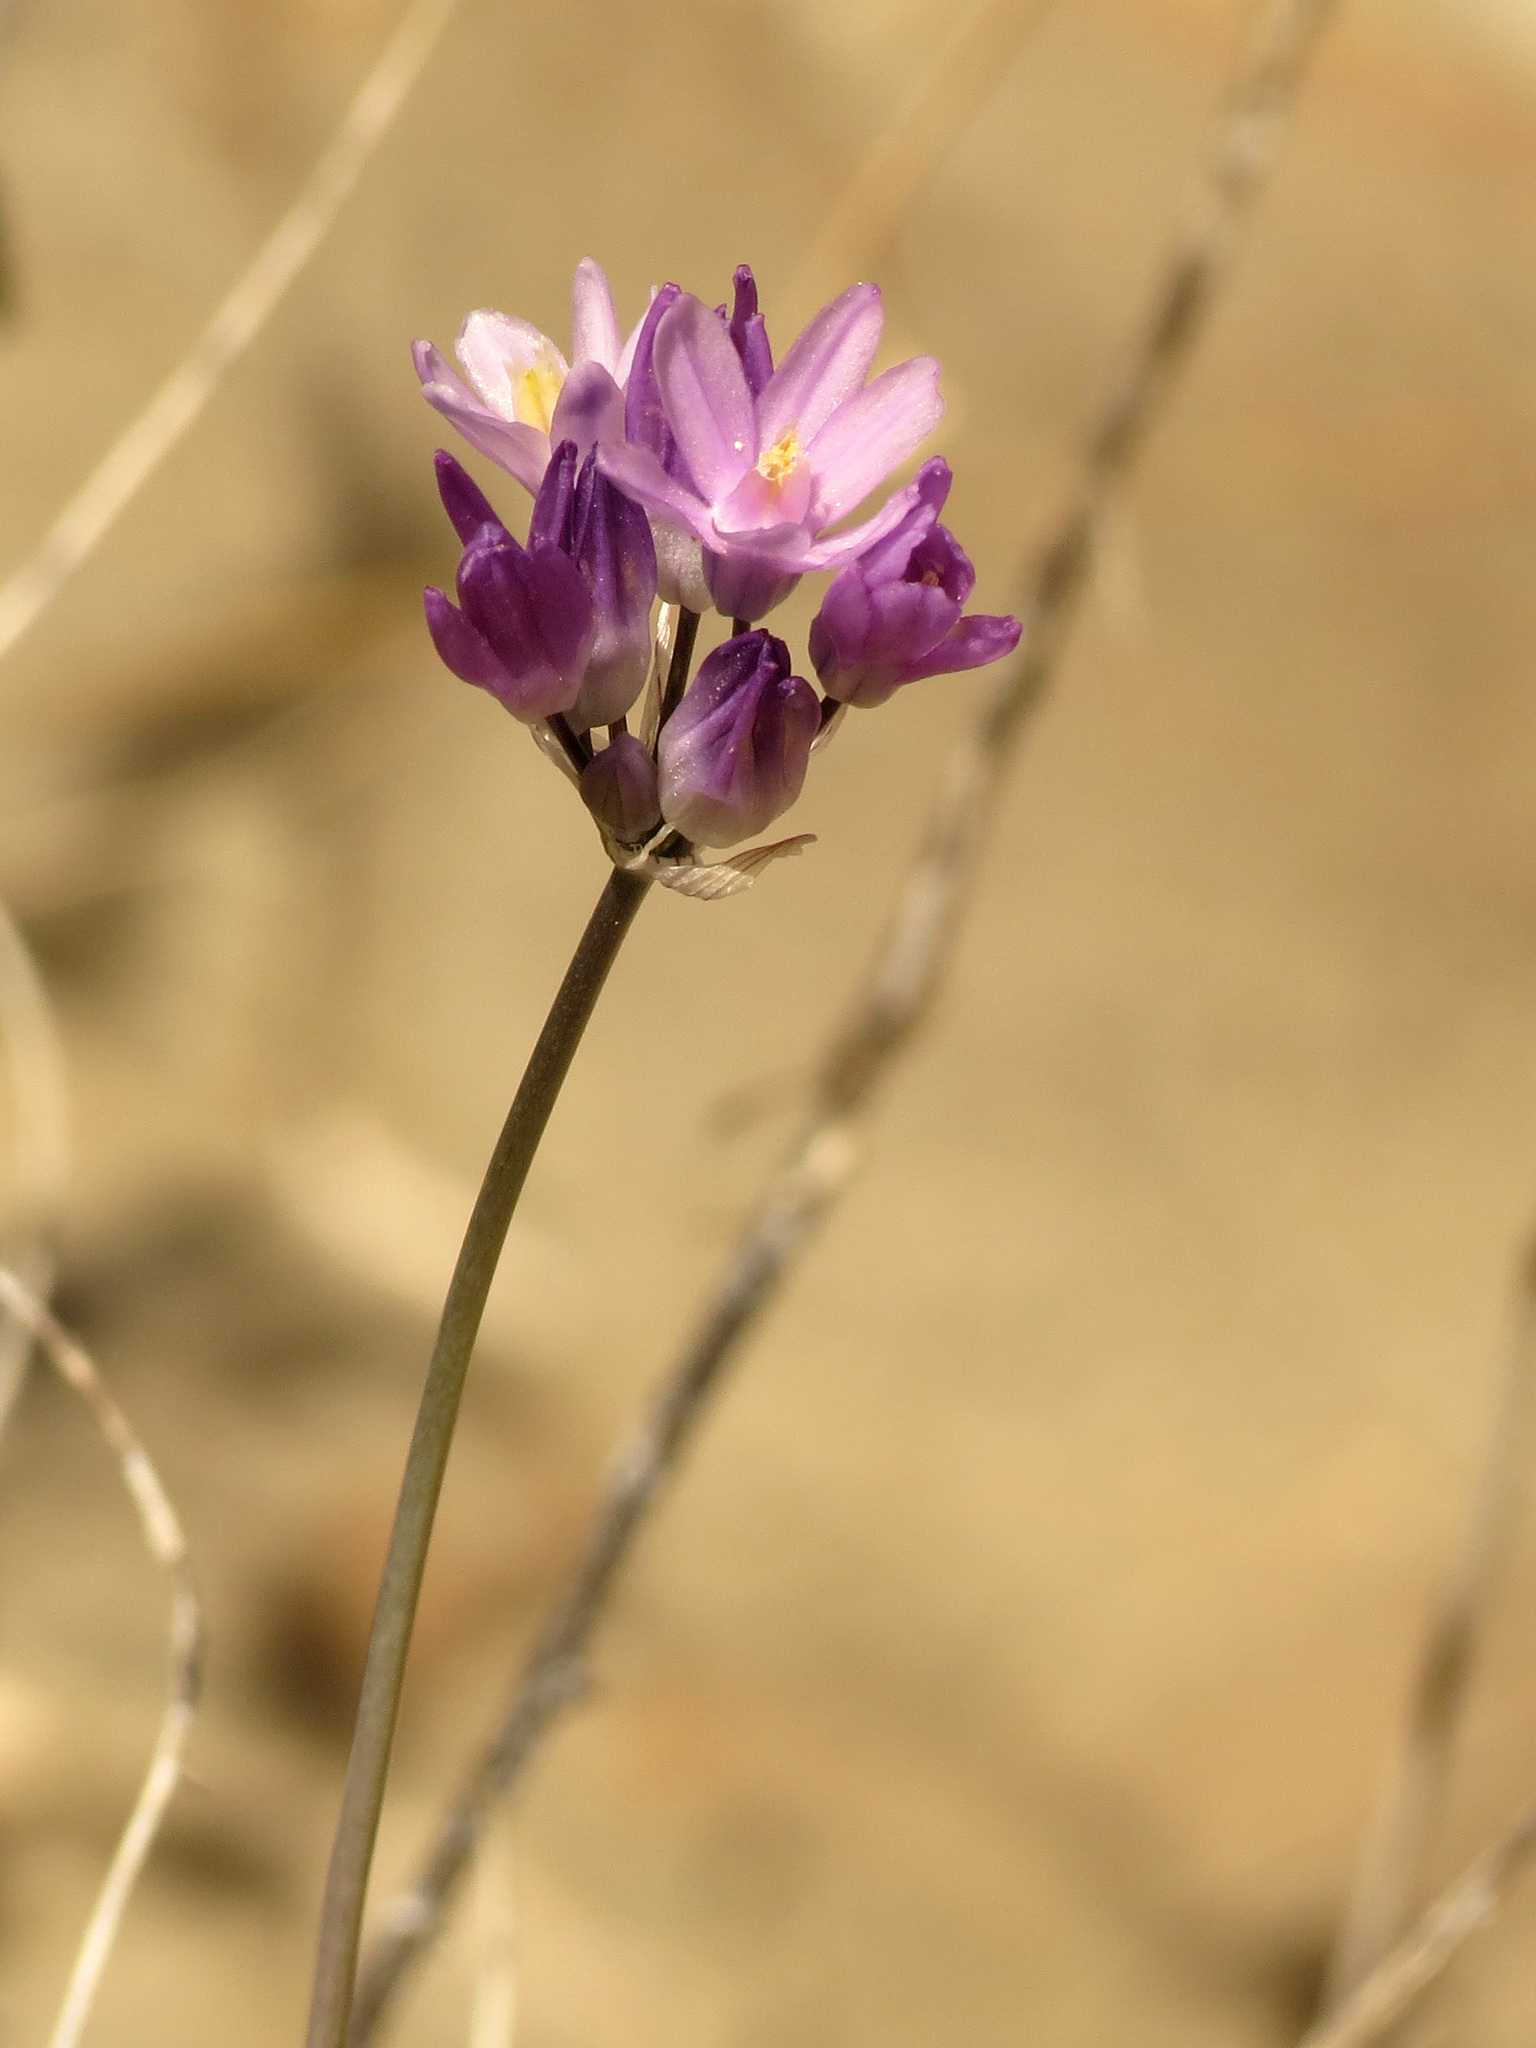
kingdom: Plantae
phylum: Tracheophyta
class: Liliopsida
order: Asparagales
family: Asparagaceae
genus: Dipterostemon
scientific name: Dipterostemon capitatus
